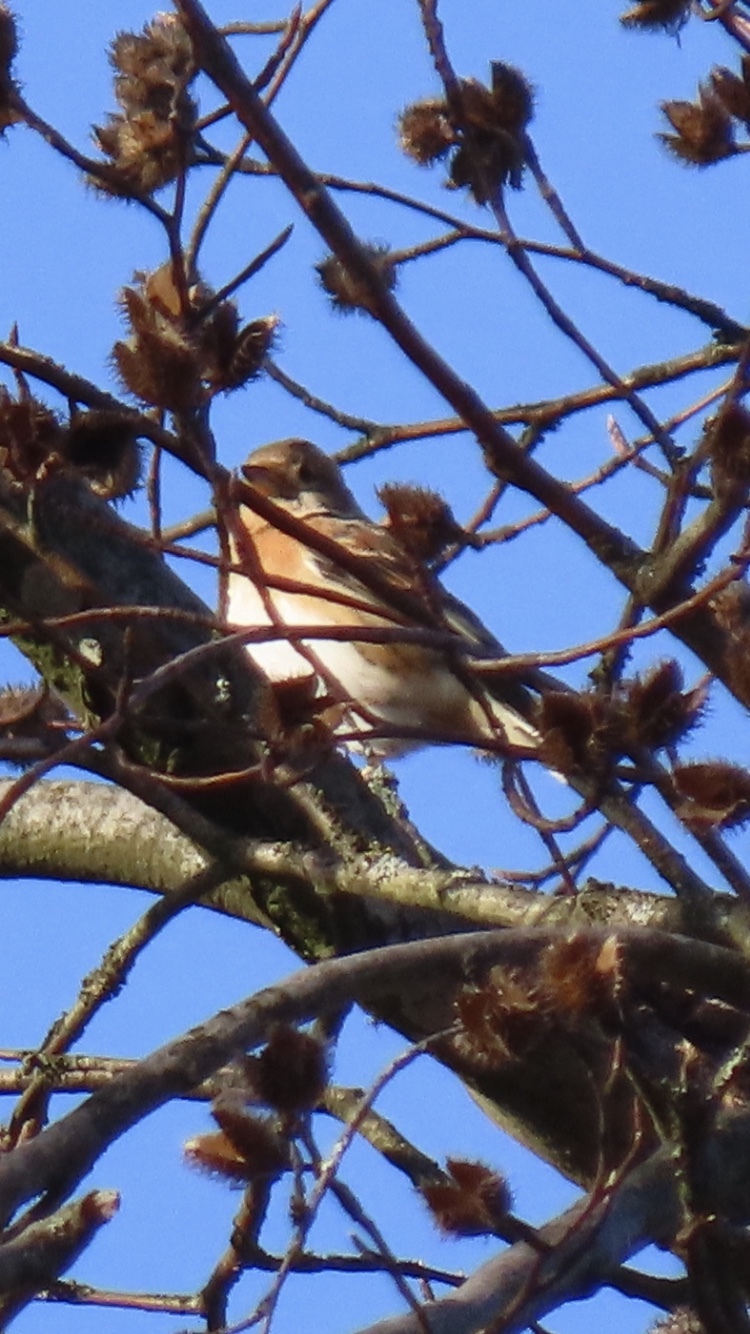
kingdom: Animalia
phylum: Chordata
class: Aves
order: Passeriformes
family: Fringillidae
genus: Fringilla
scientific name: Fringilla montifringilla
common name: Brambling
